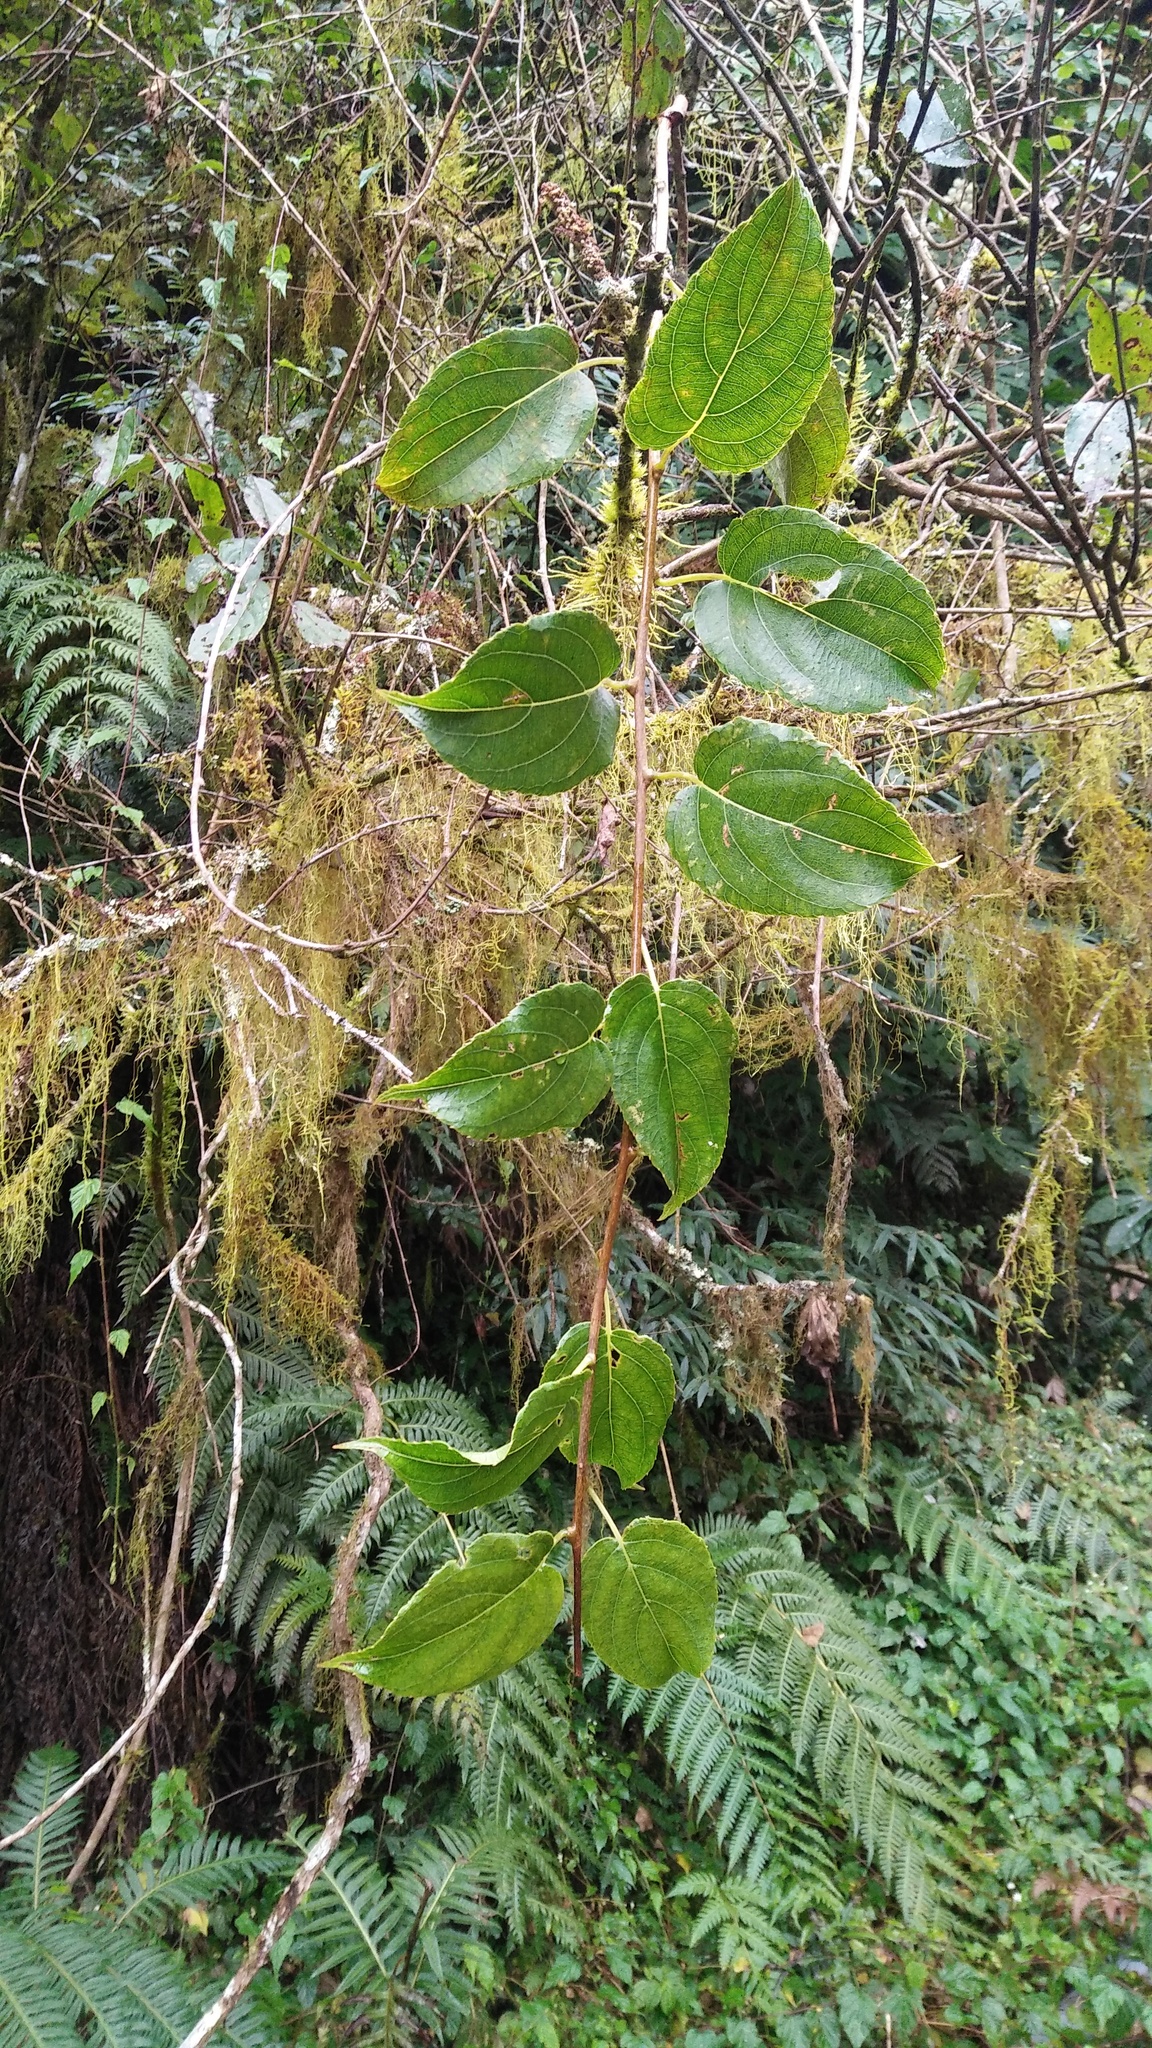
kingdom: Plantae
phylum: Tracheophyta
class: Magnoliopsida
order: Ericales
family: Actinidiaceae
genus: Actinidia
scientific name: Actinidia arguta
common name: Tara vine
